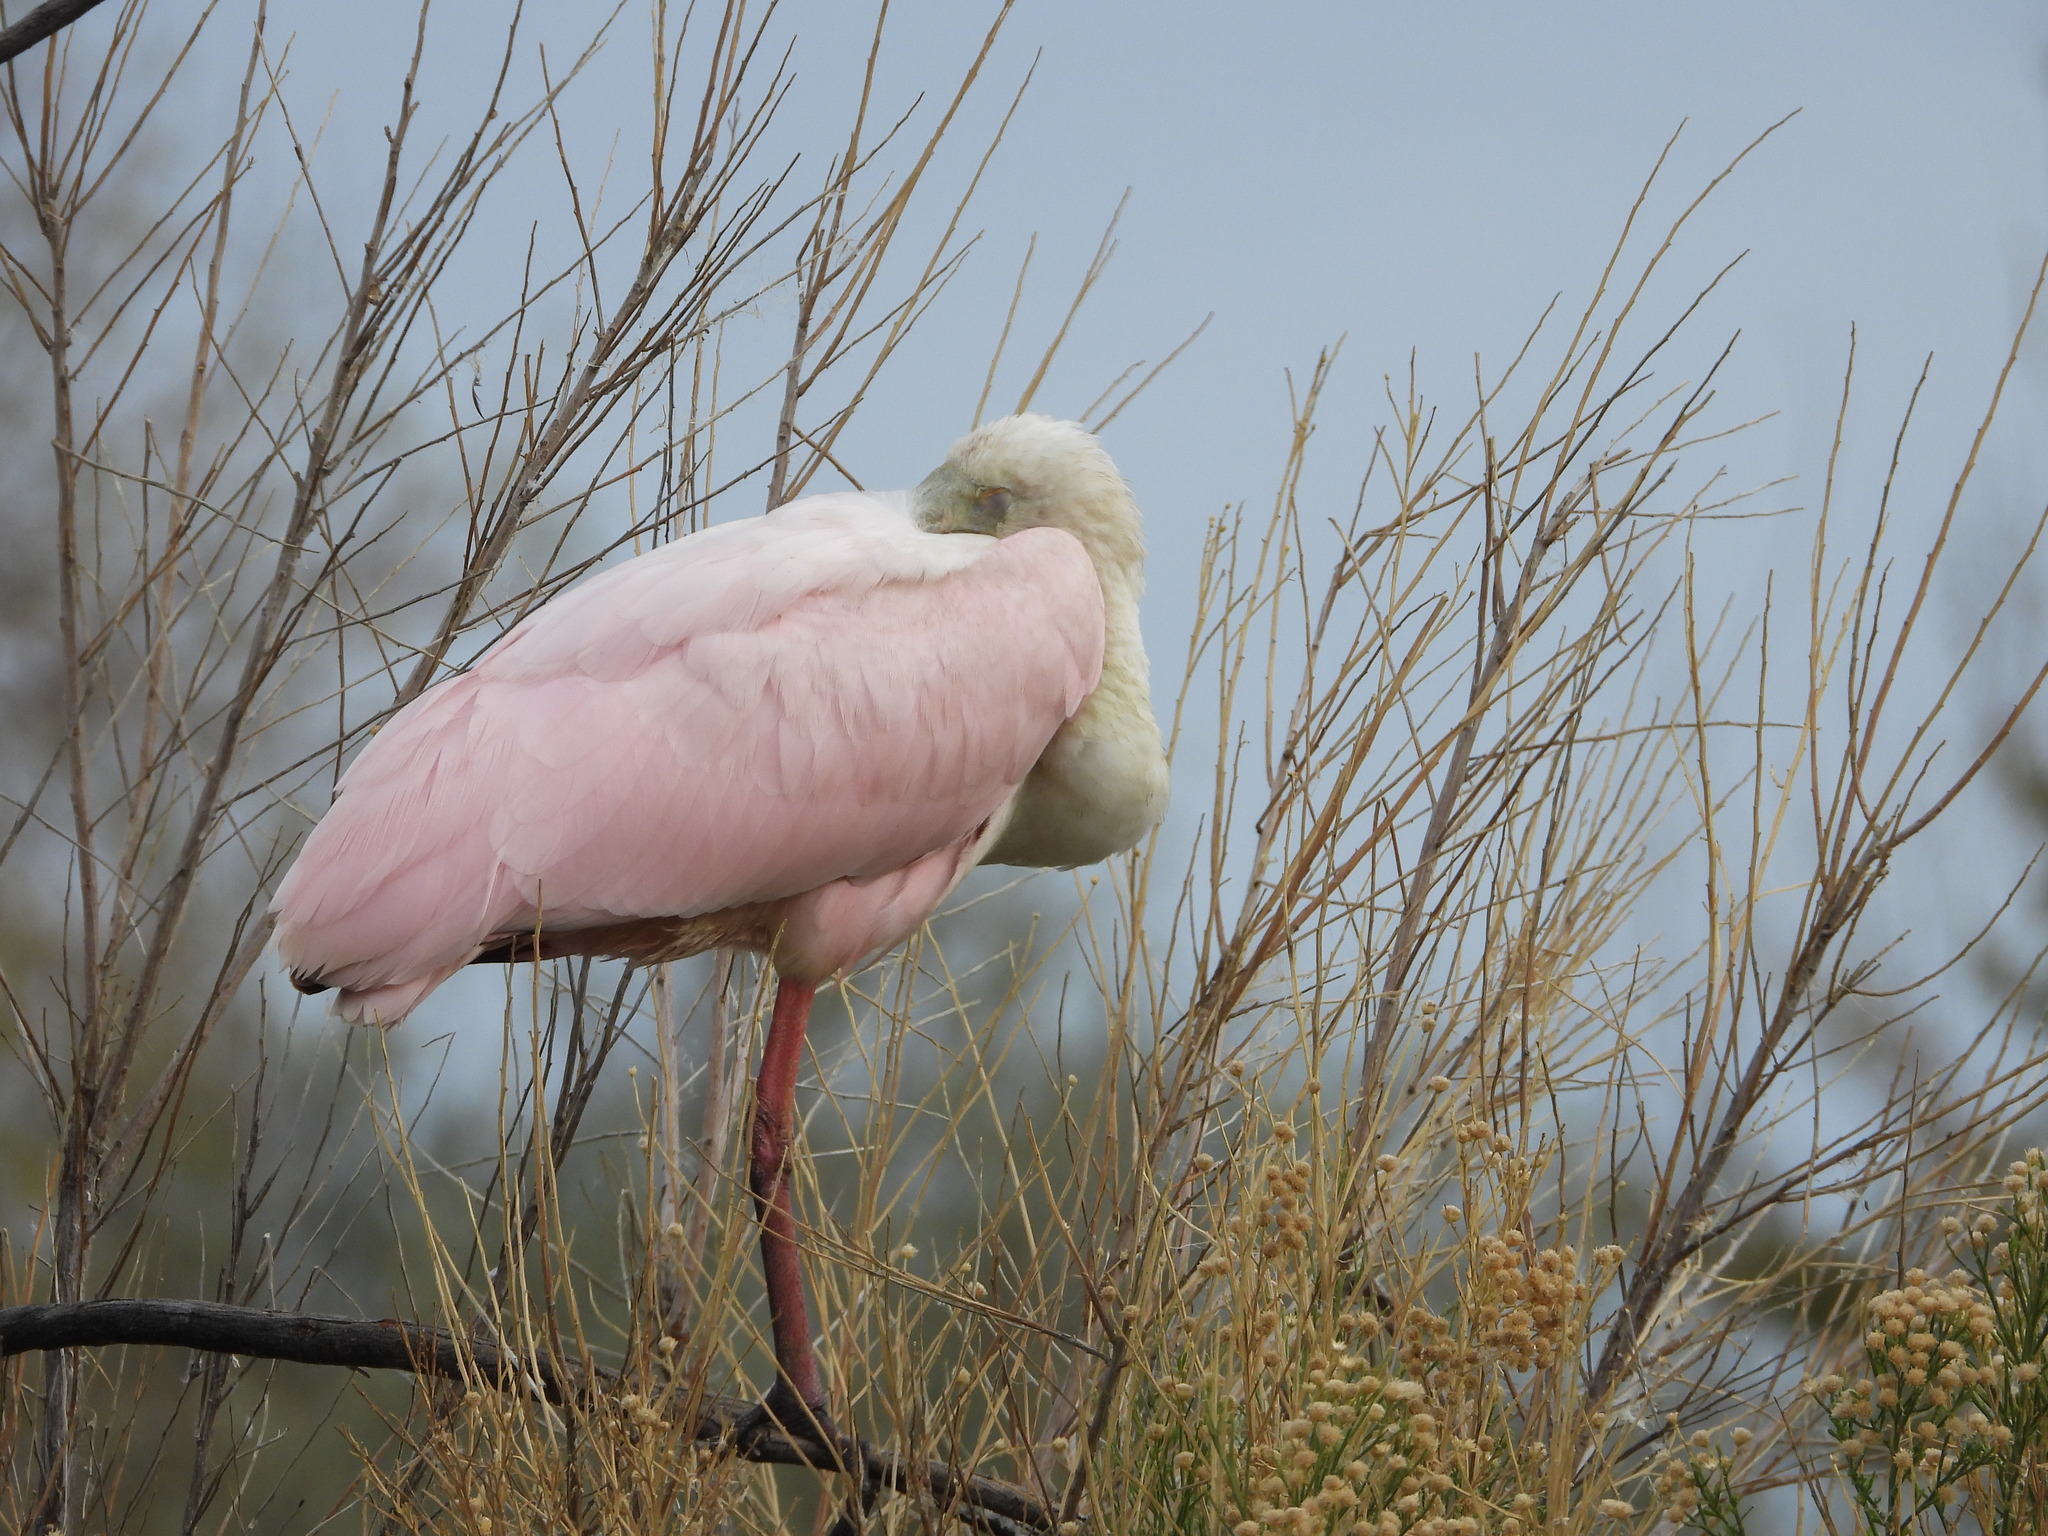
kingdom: Animalia
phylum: Chordata
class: Aves
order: Pelecaniformes
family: Threskiornithidae
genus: Platalea
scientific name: Platalea ajaja
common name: Roseate spoonbill
